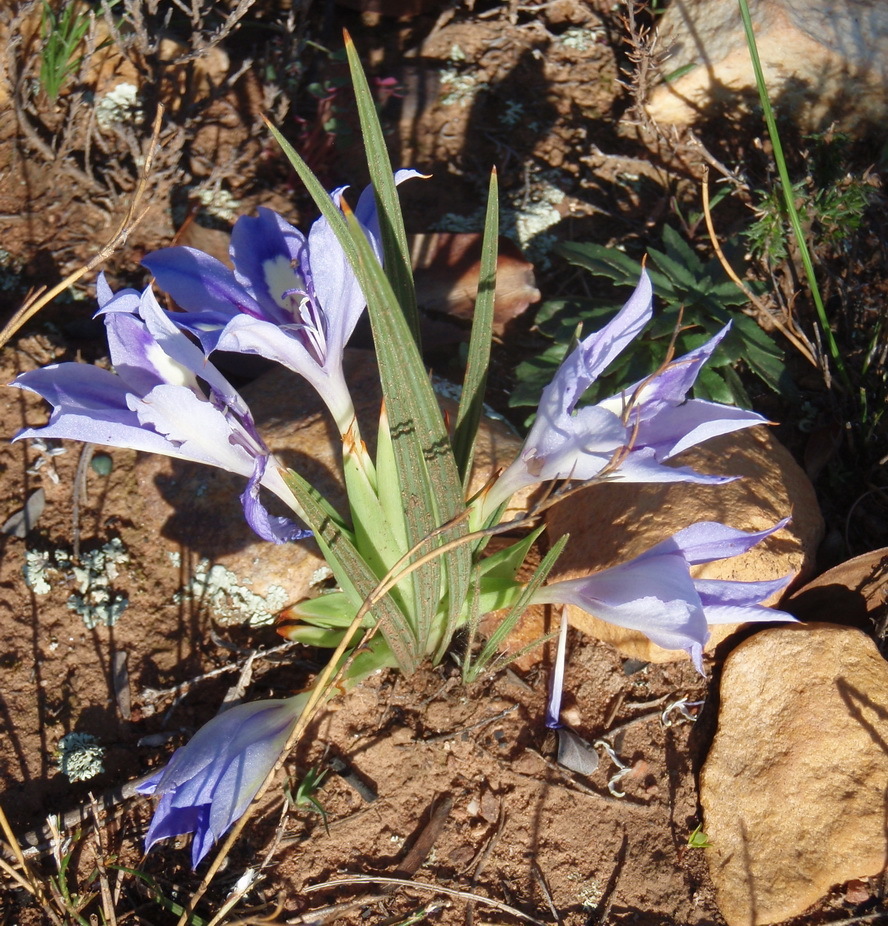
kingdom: Plantae
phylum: Tracheophyta
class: Liliopsida
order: Asparagales
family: Iridaceae
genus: Babiana
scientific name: Babiana sambucina
